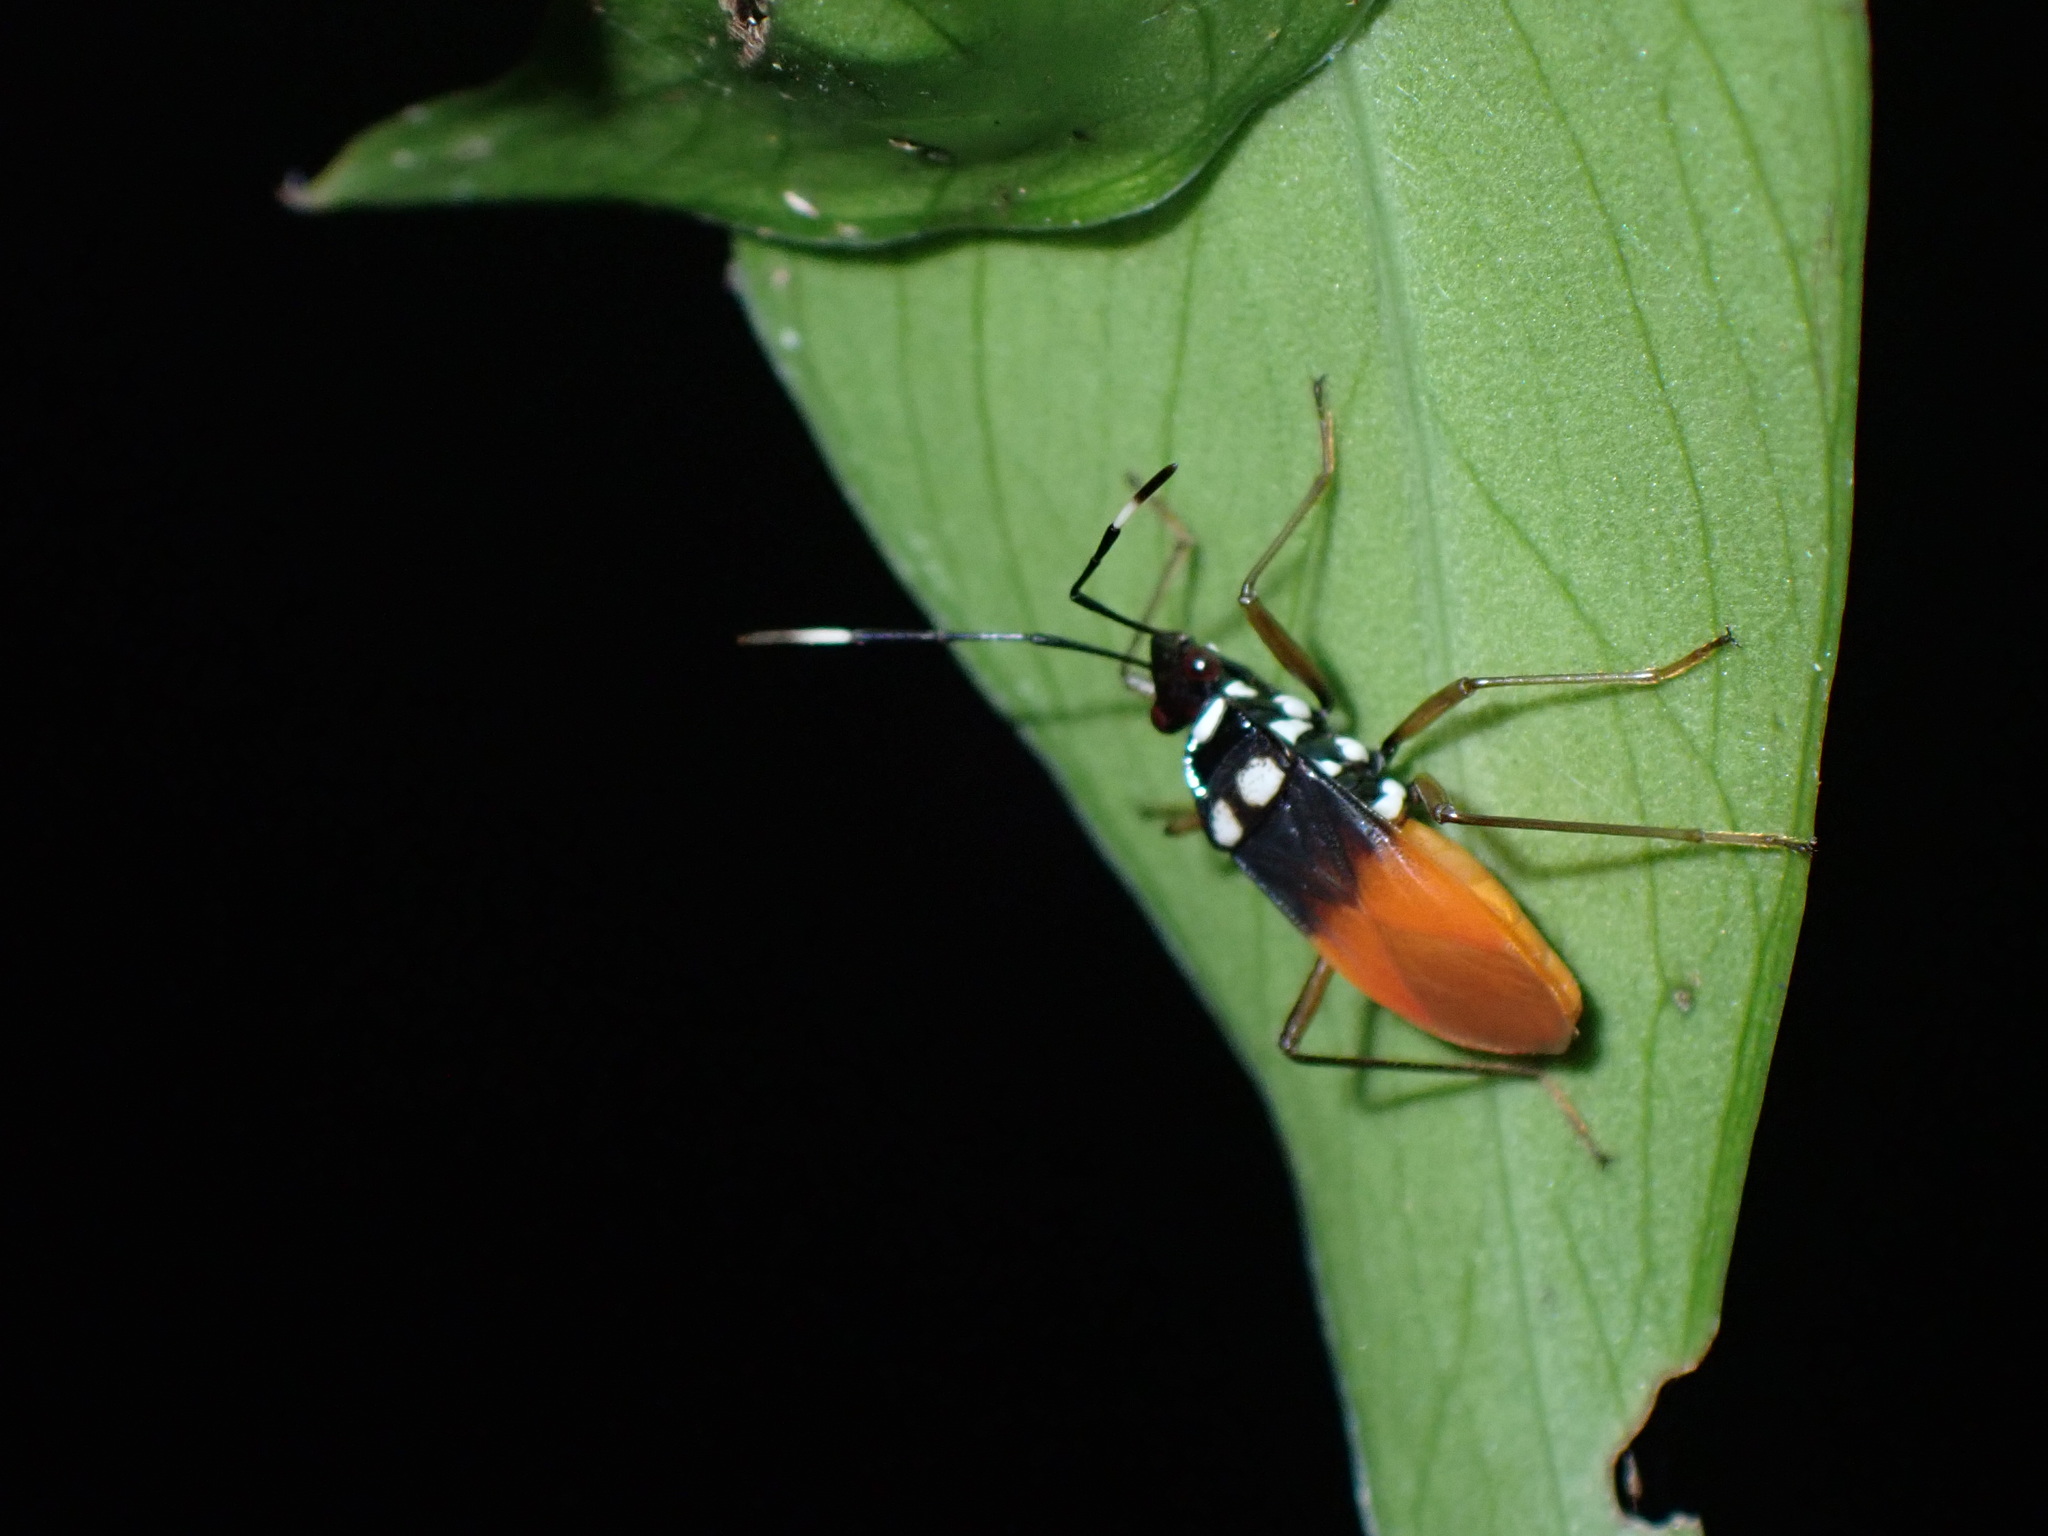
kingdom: Animalia
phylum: Arthropoda
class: Insecta
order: Hemiptera
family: Pyrrhocoridae
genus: Dindymus
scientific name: Dindymus
